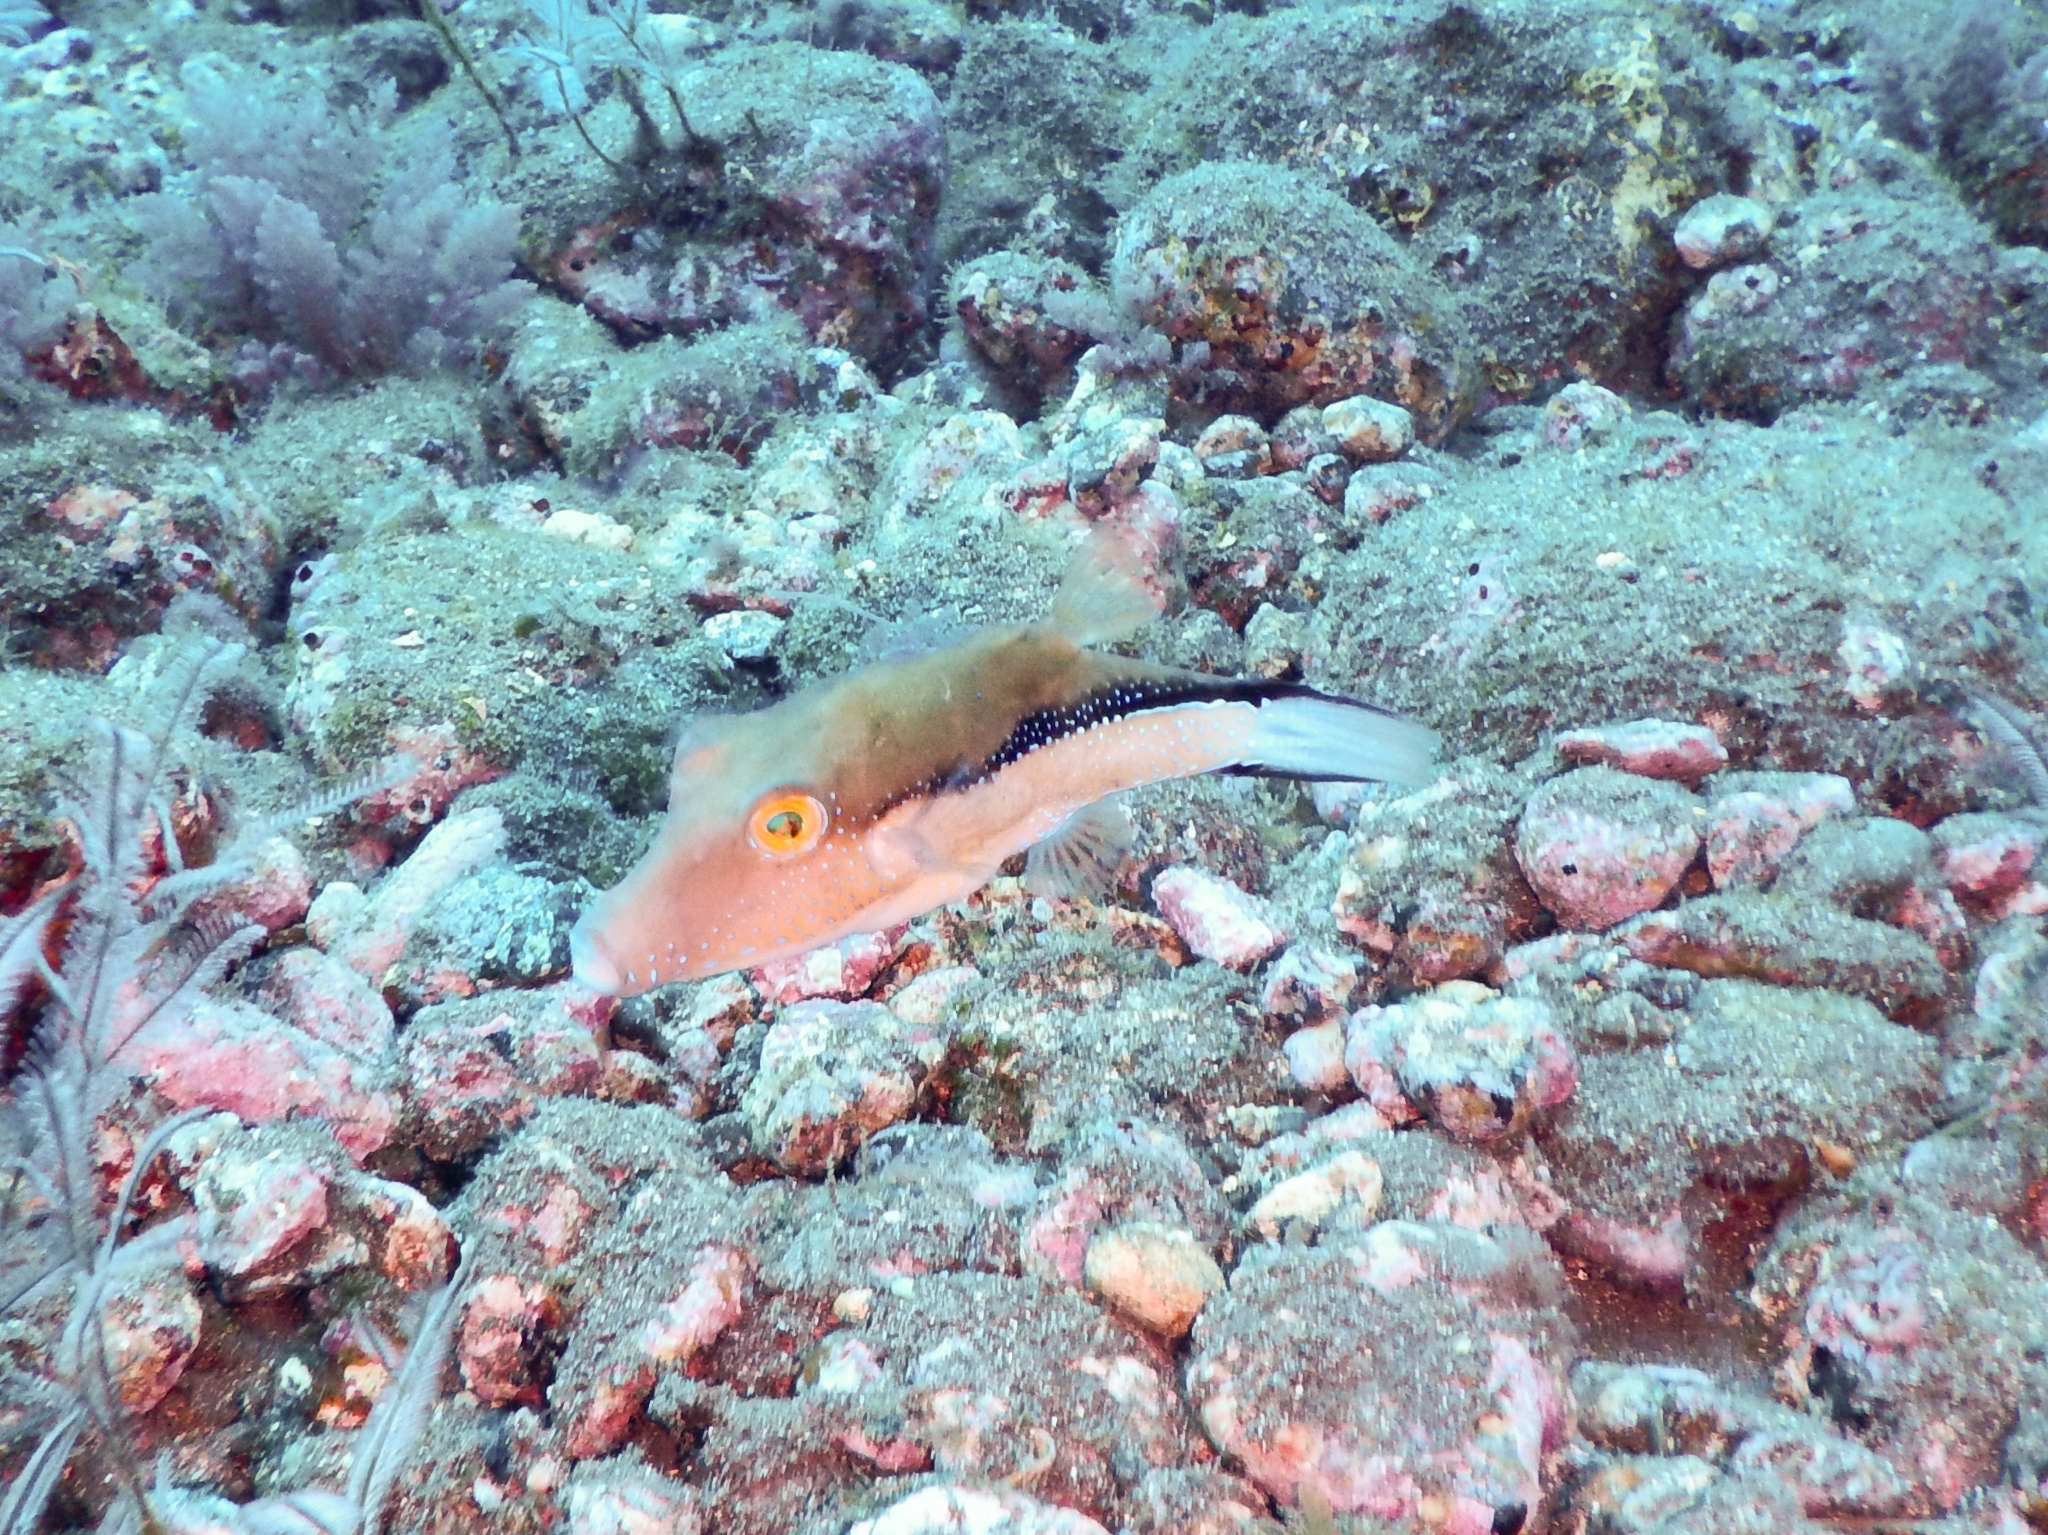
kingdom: Animalia
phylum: Chordata
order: Tetraodontiformes
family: Tetraodontidae
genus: Canthigaster
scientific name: Canthigaster capistrata
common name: Macaronesian sharpnose-puffer
